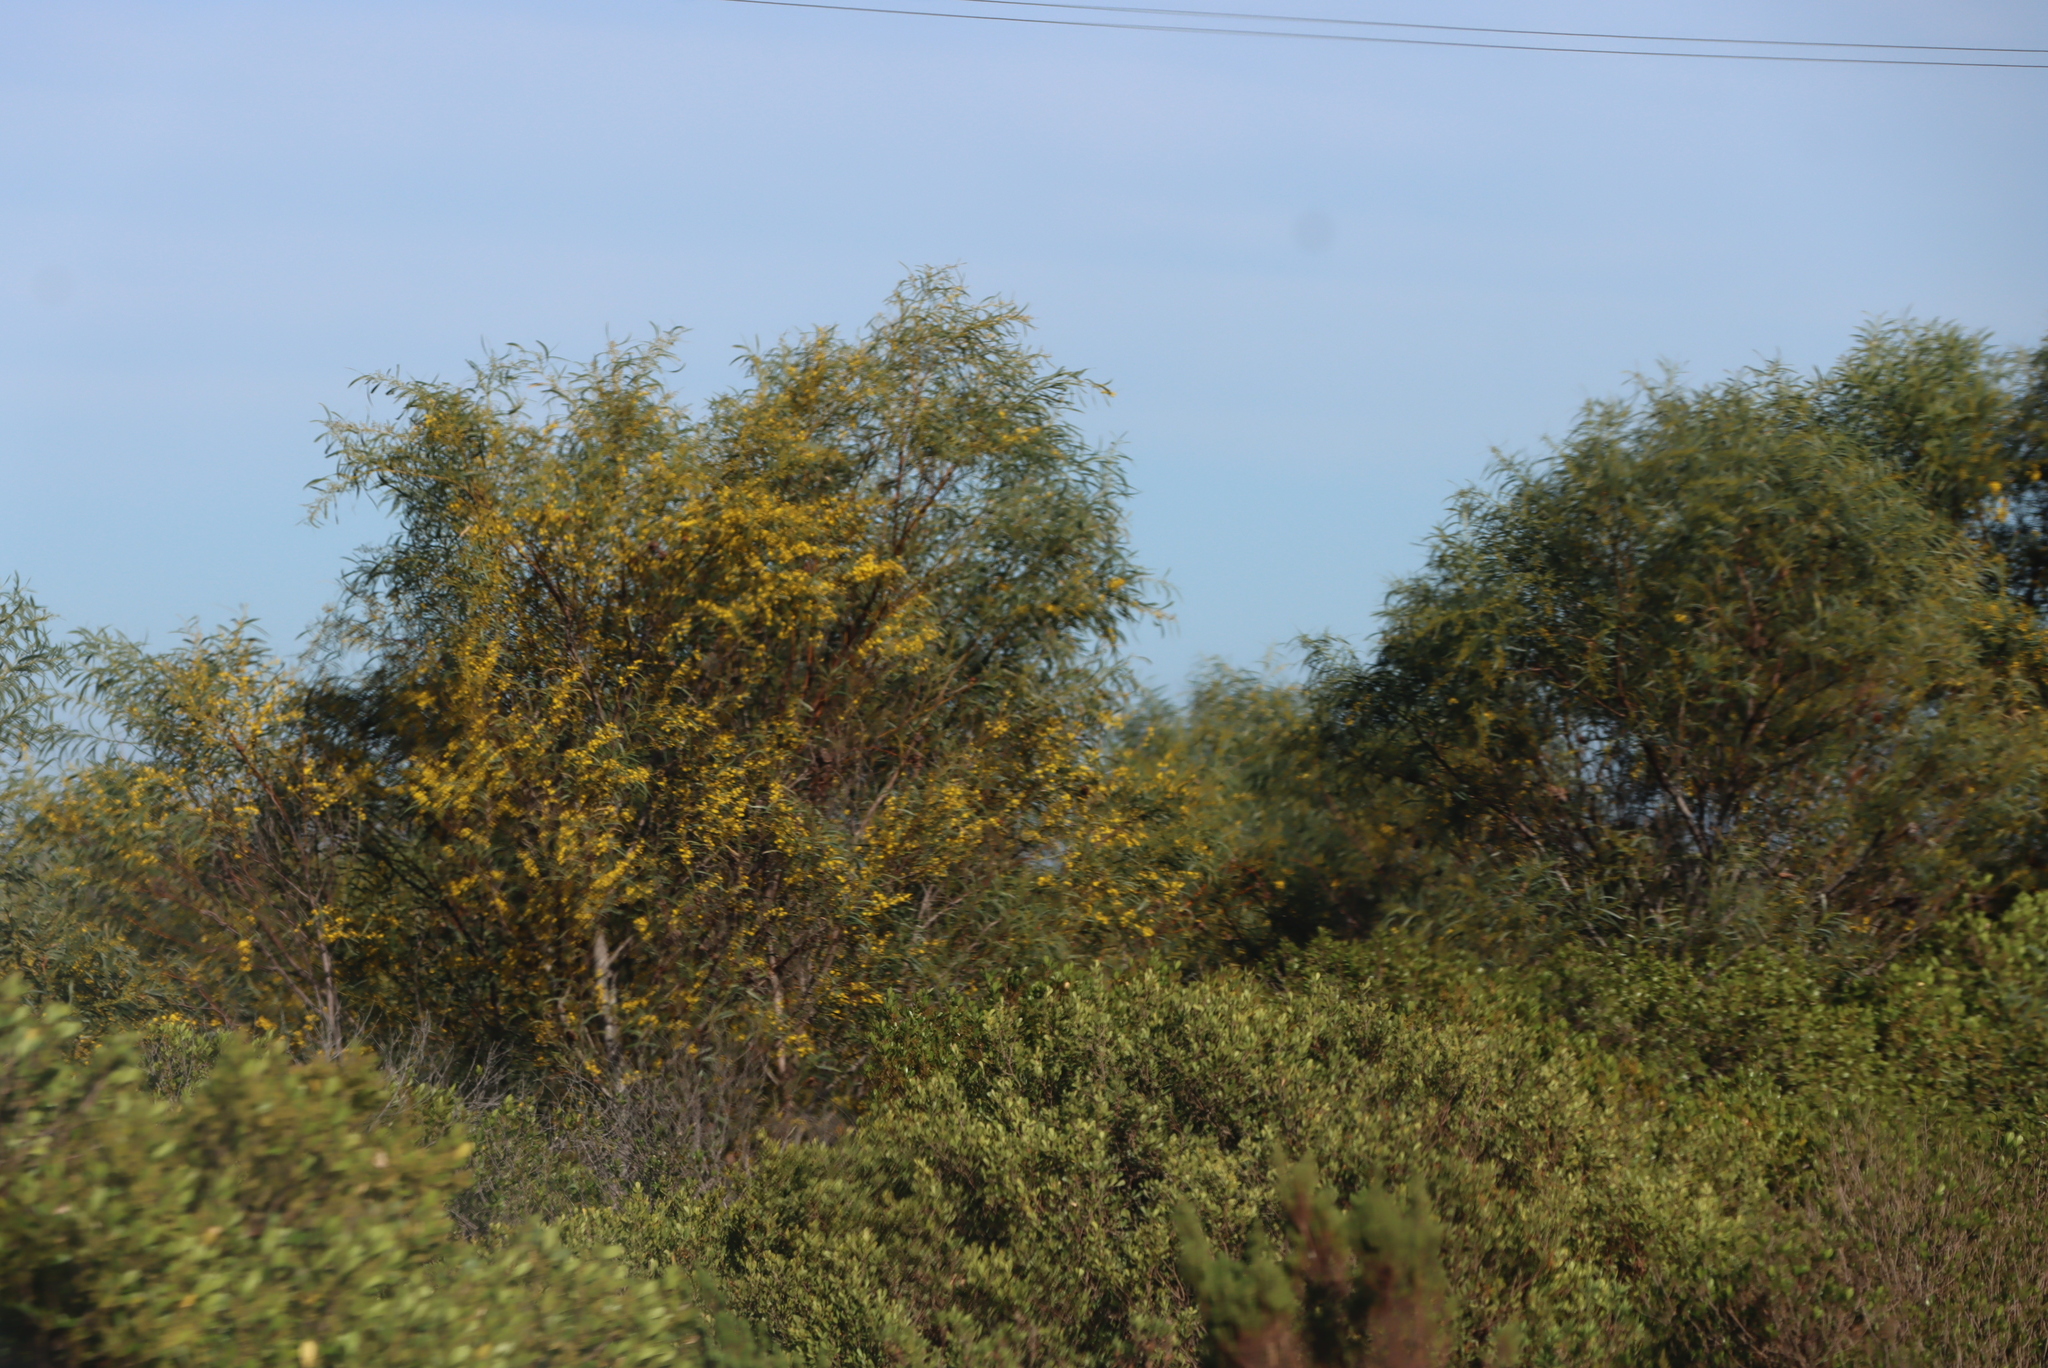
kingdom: Plantae
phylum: Tracheophyta
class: Magnoliopsida
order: Fabales
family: Fabaceae
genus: Acacia
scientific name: Acacia saligna
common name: Orange wattle
